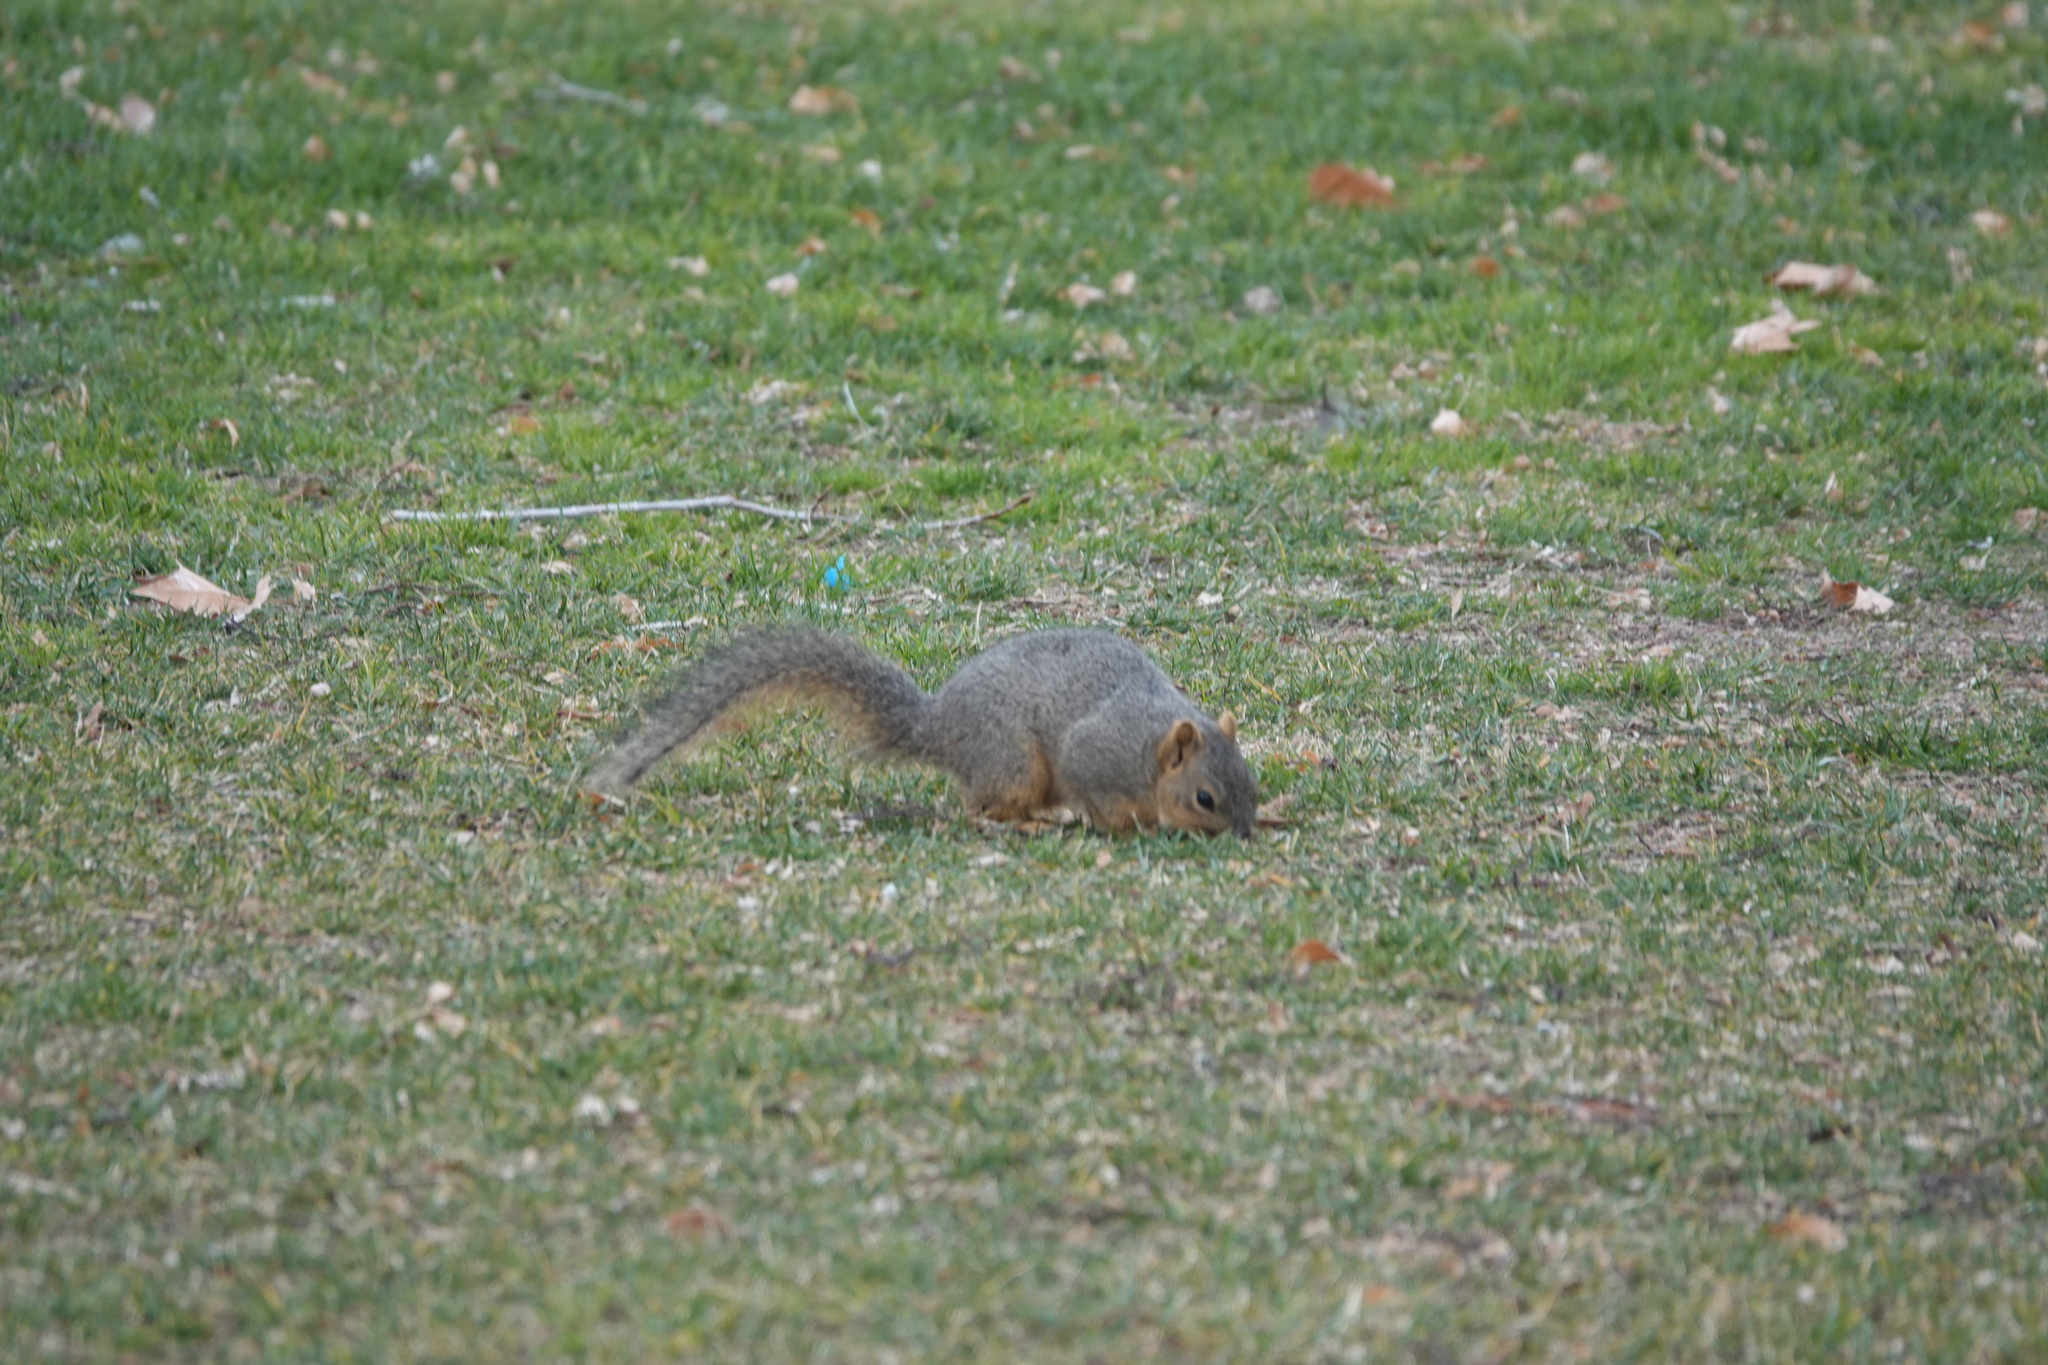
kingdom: Animalia
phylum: Chordata
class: Mammalia
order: Rodentia
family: Sciuridae
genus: Sciurus
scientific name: Sciurus niger
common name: Fox squirrel
